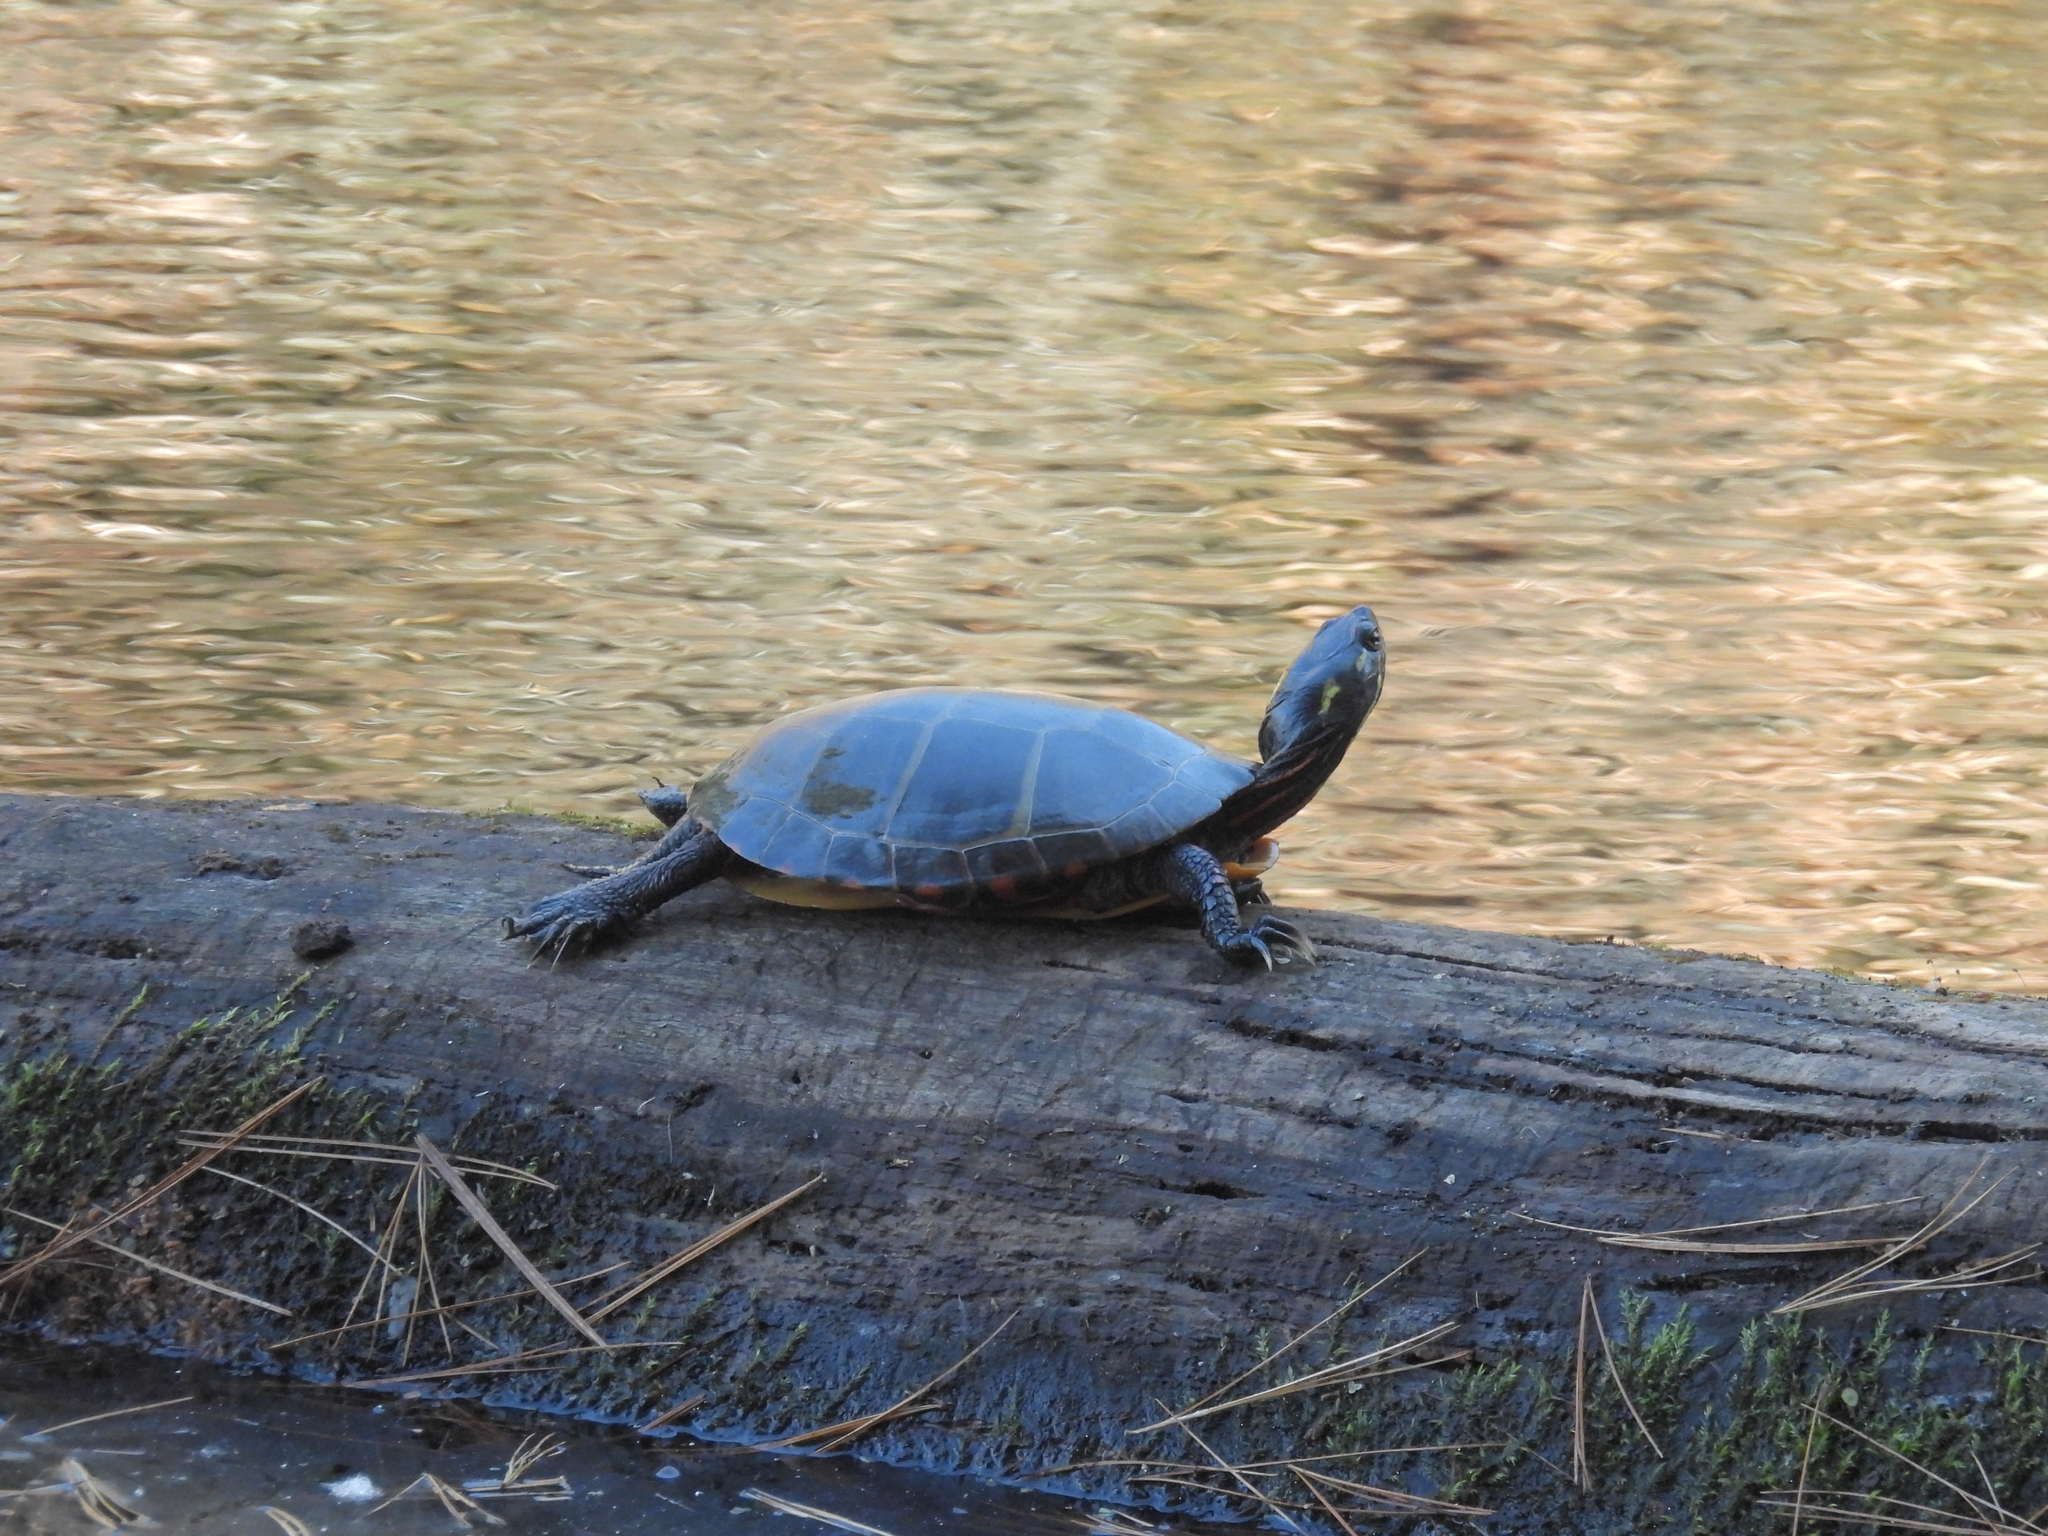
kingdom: Animalia
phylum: Chordata
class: Testudines
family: Emydidae
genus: Chrysemys
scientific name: Chrysemys picta
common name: Painted turtle
